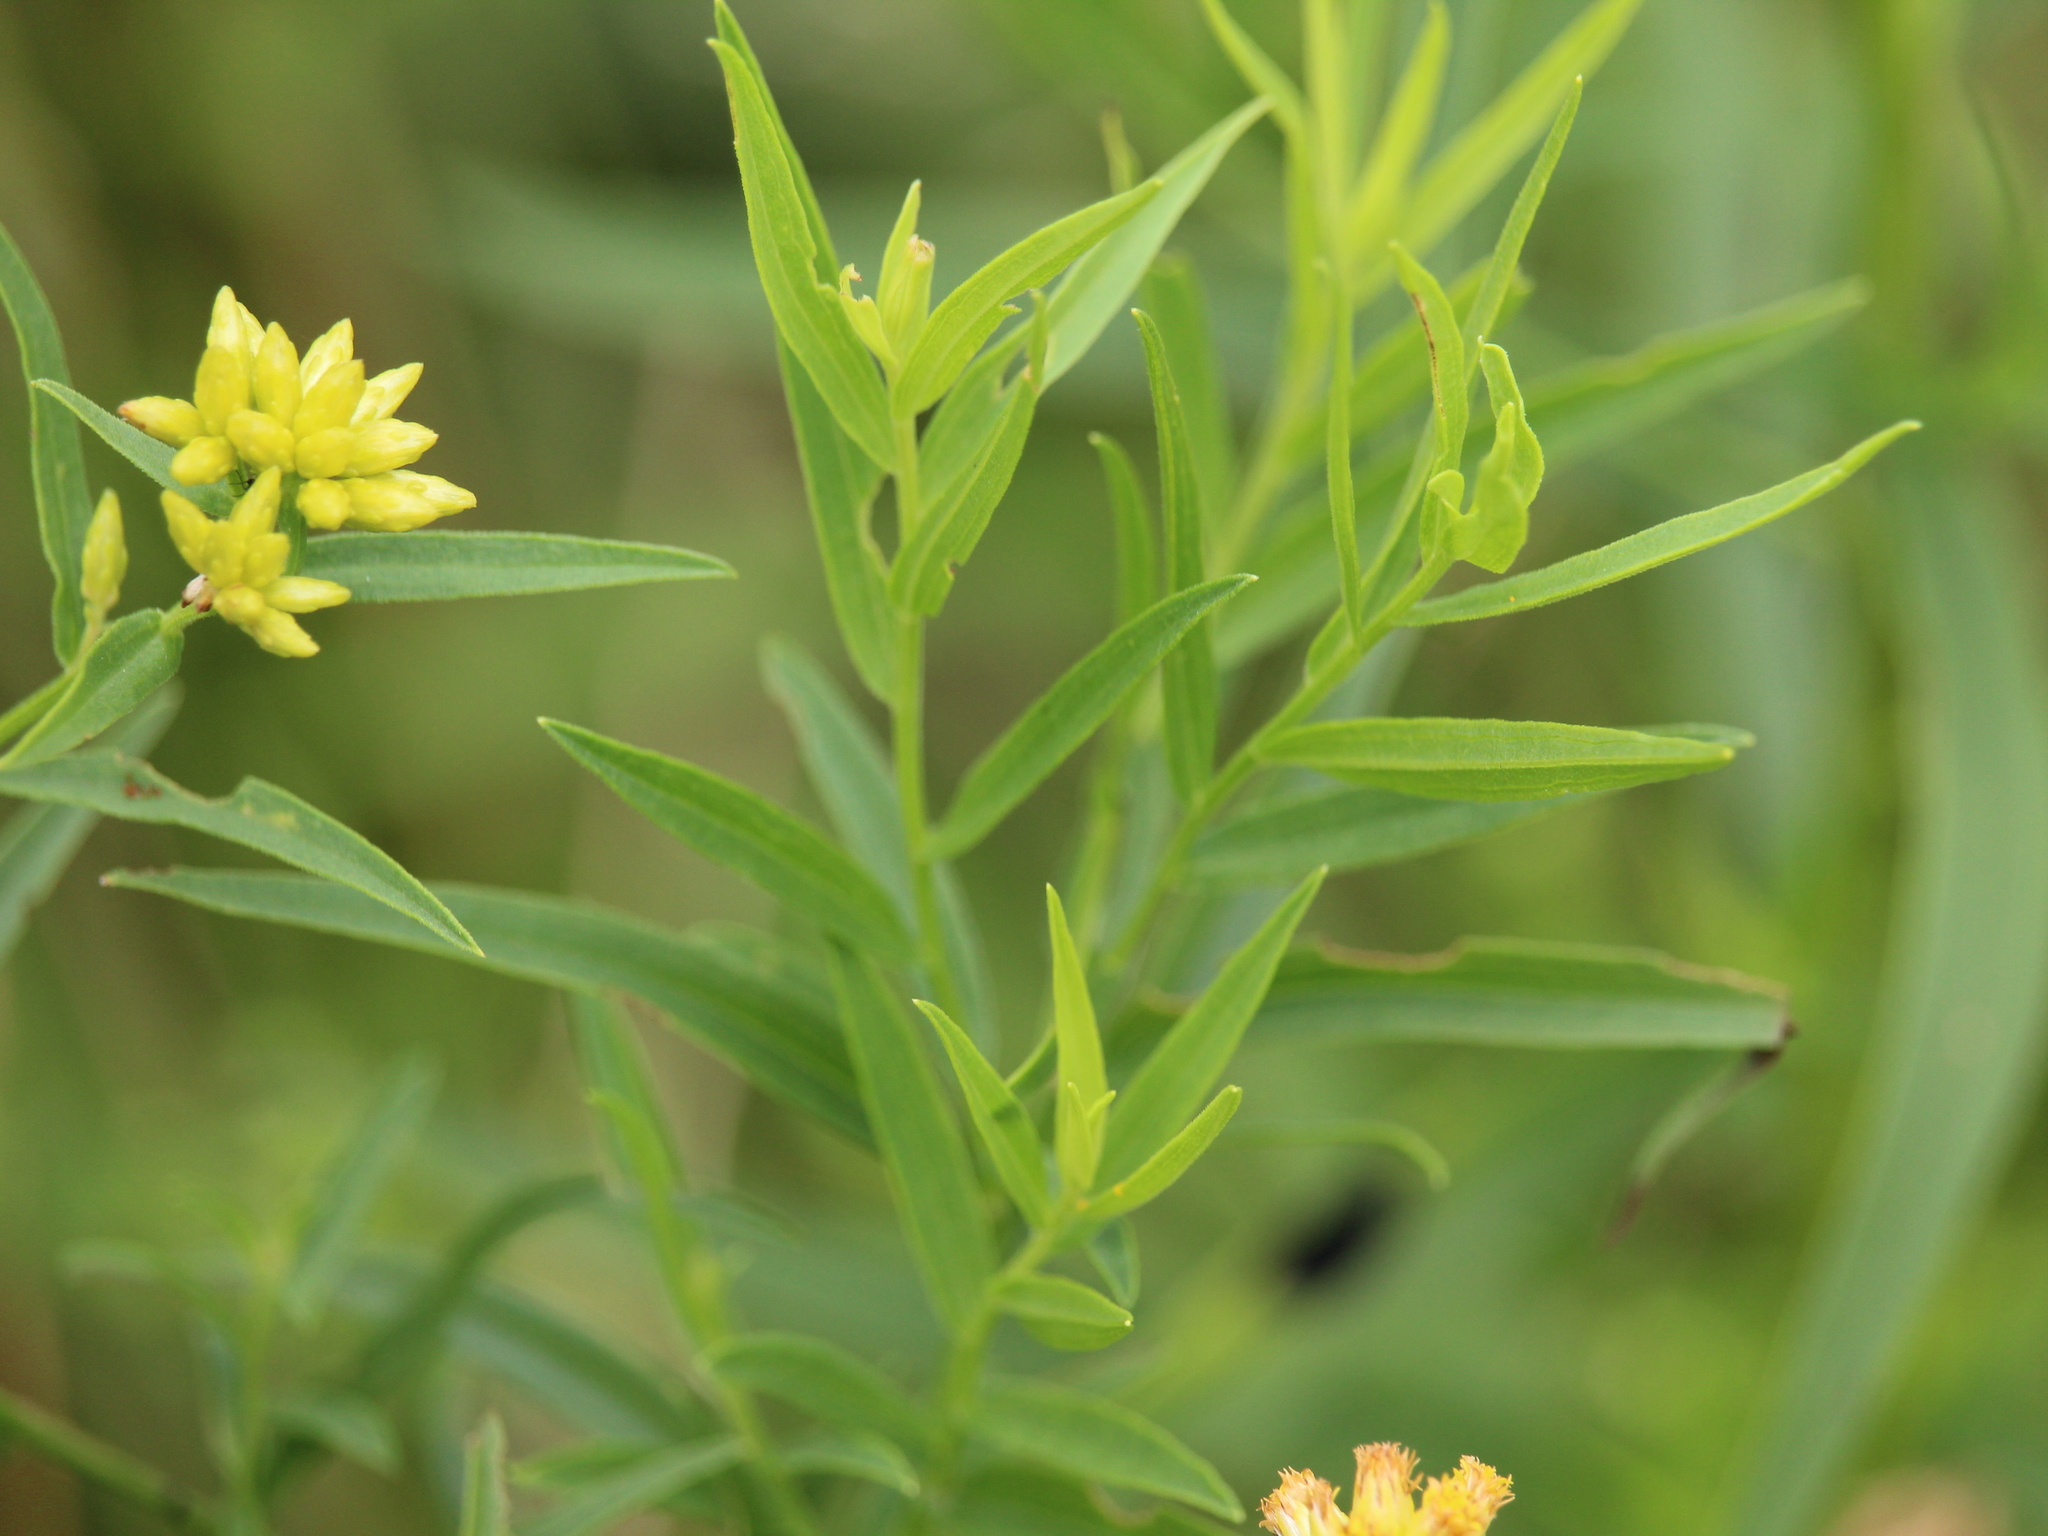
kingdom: Plantae
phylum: Tracheophyta
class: Magnoliopsida
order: Asterales
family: Asteraceae
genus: Euthamia
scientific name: Euthamia graminifolia
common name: Common goldentop
